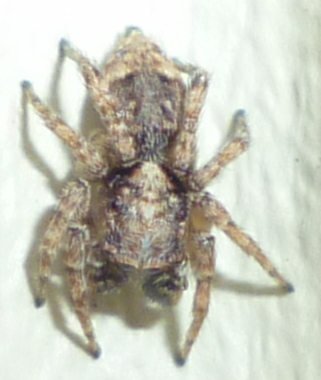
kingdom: Animalia
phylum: Arthropoda
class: Arachnida
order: Araneae
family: Salticidae
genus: Attulus
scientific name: Attulus fasciger
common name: Asiatic wall jumping spider
